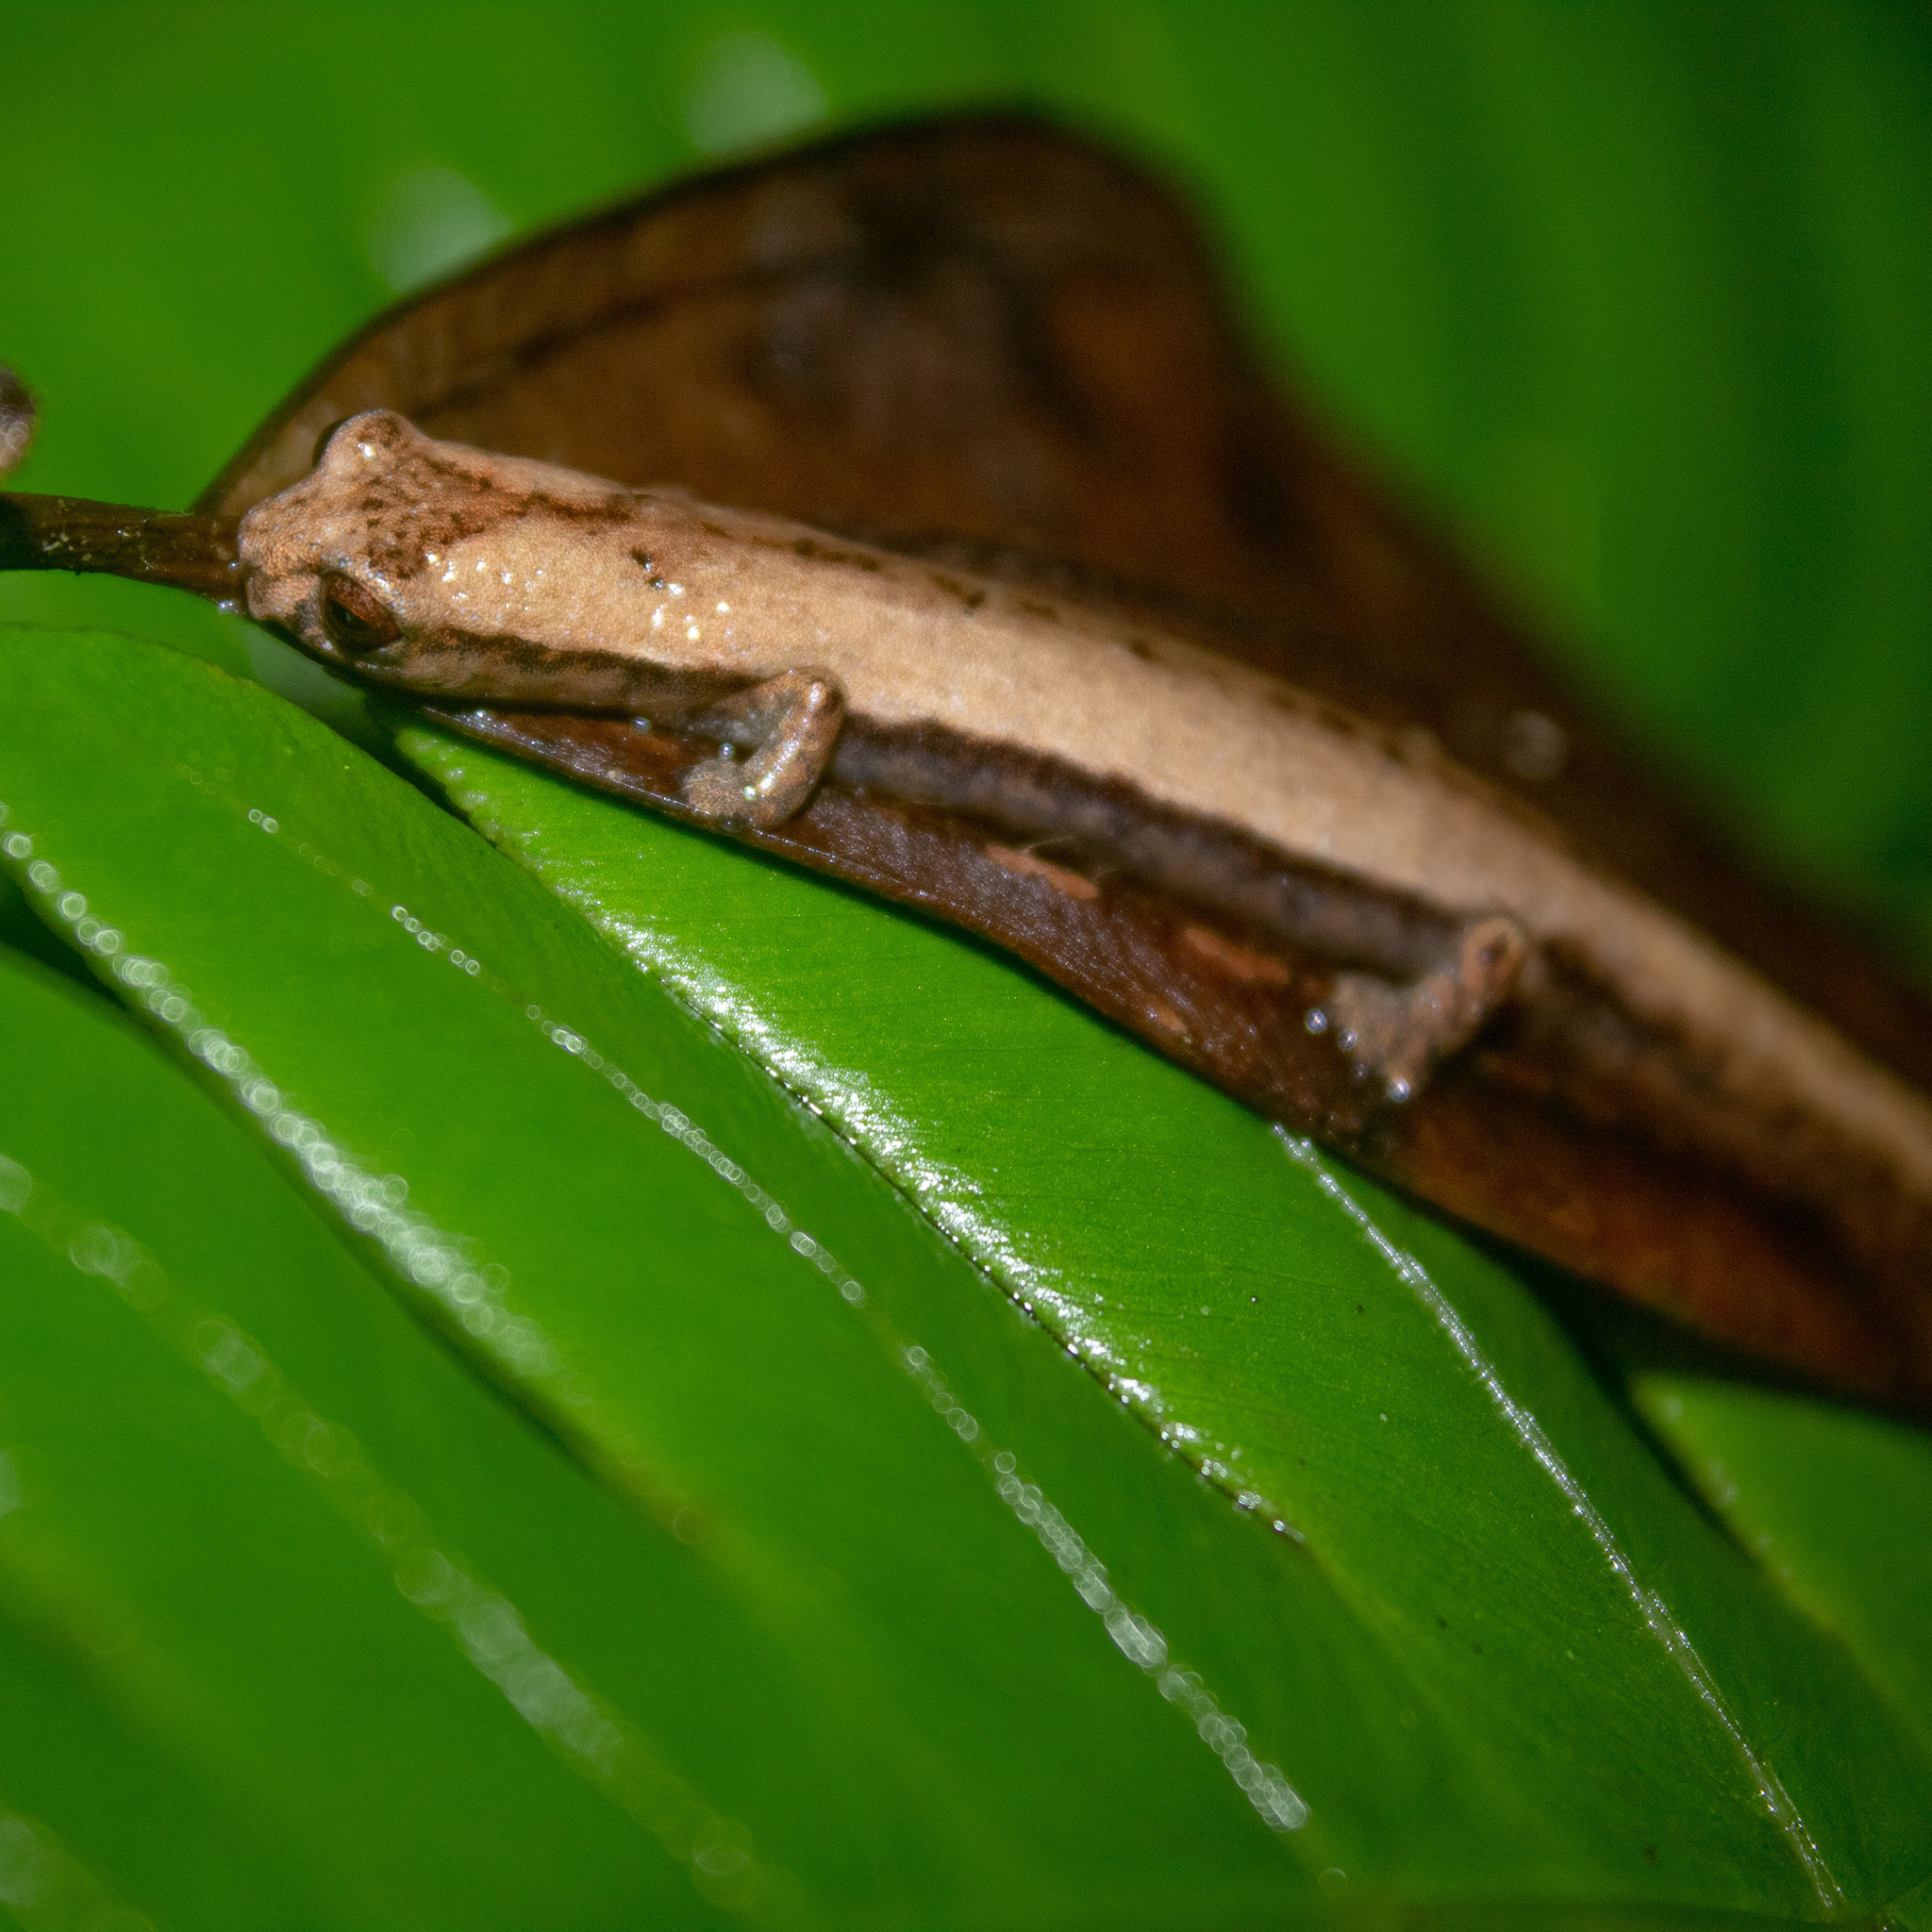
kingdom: Animalia
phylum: Chordata
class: Amphibia
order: Caudata
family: Plethodontidae
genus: Bolitoglossa
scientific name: Bolitoglossa savagei
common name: Savage's mushroomtongue salamander
